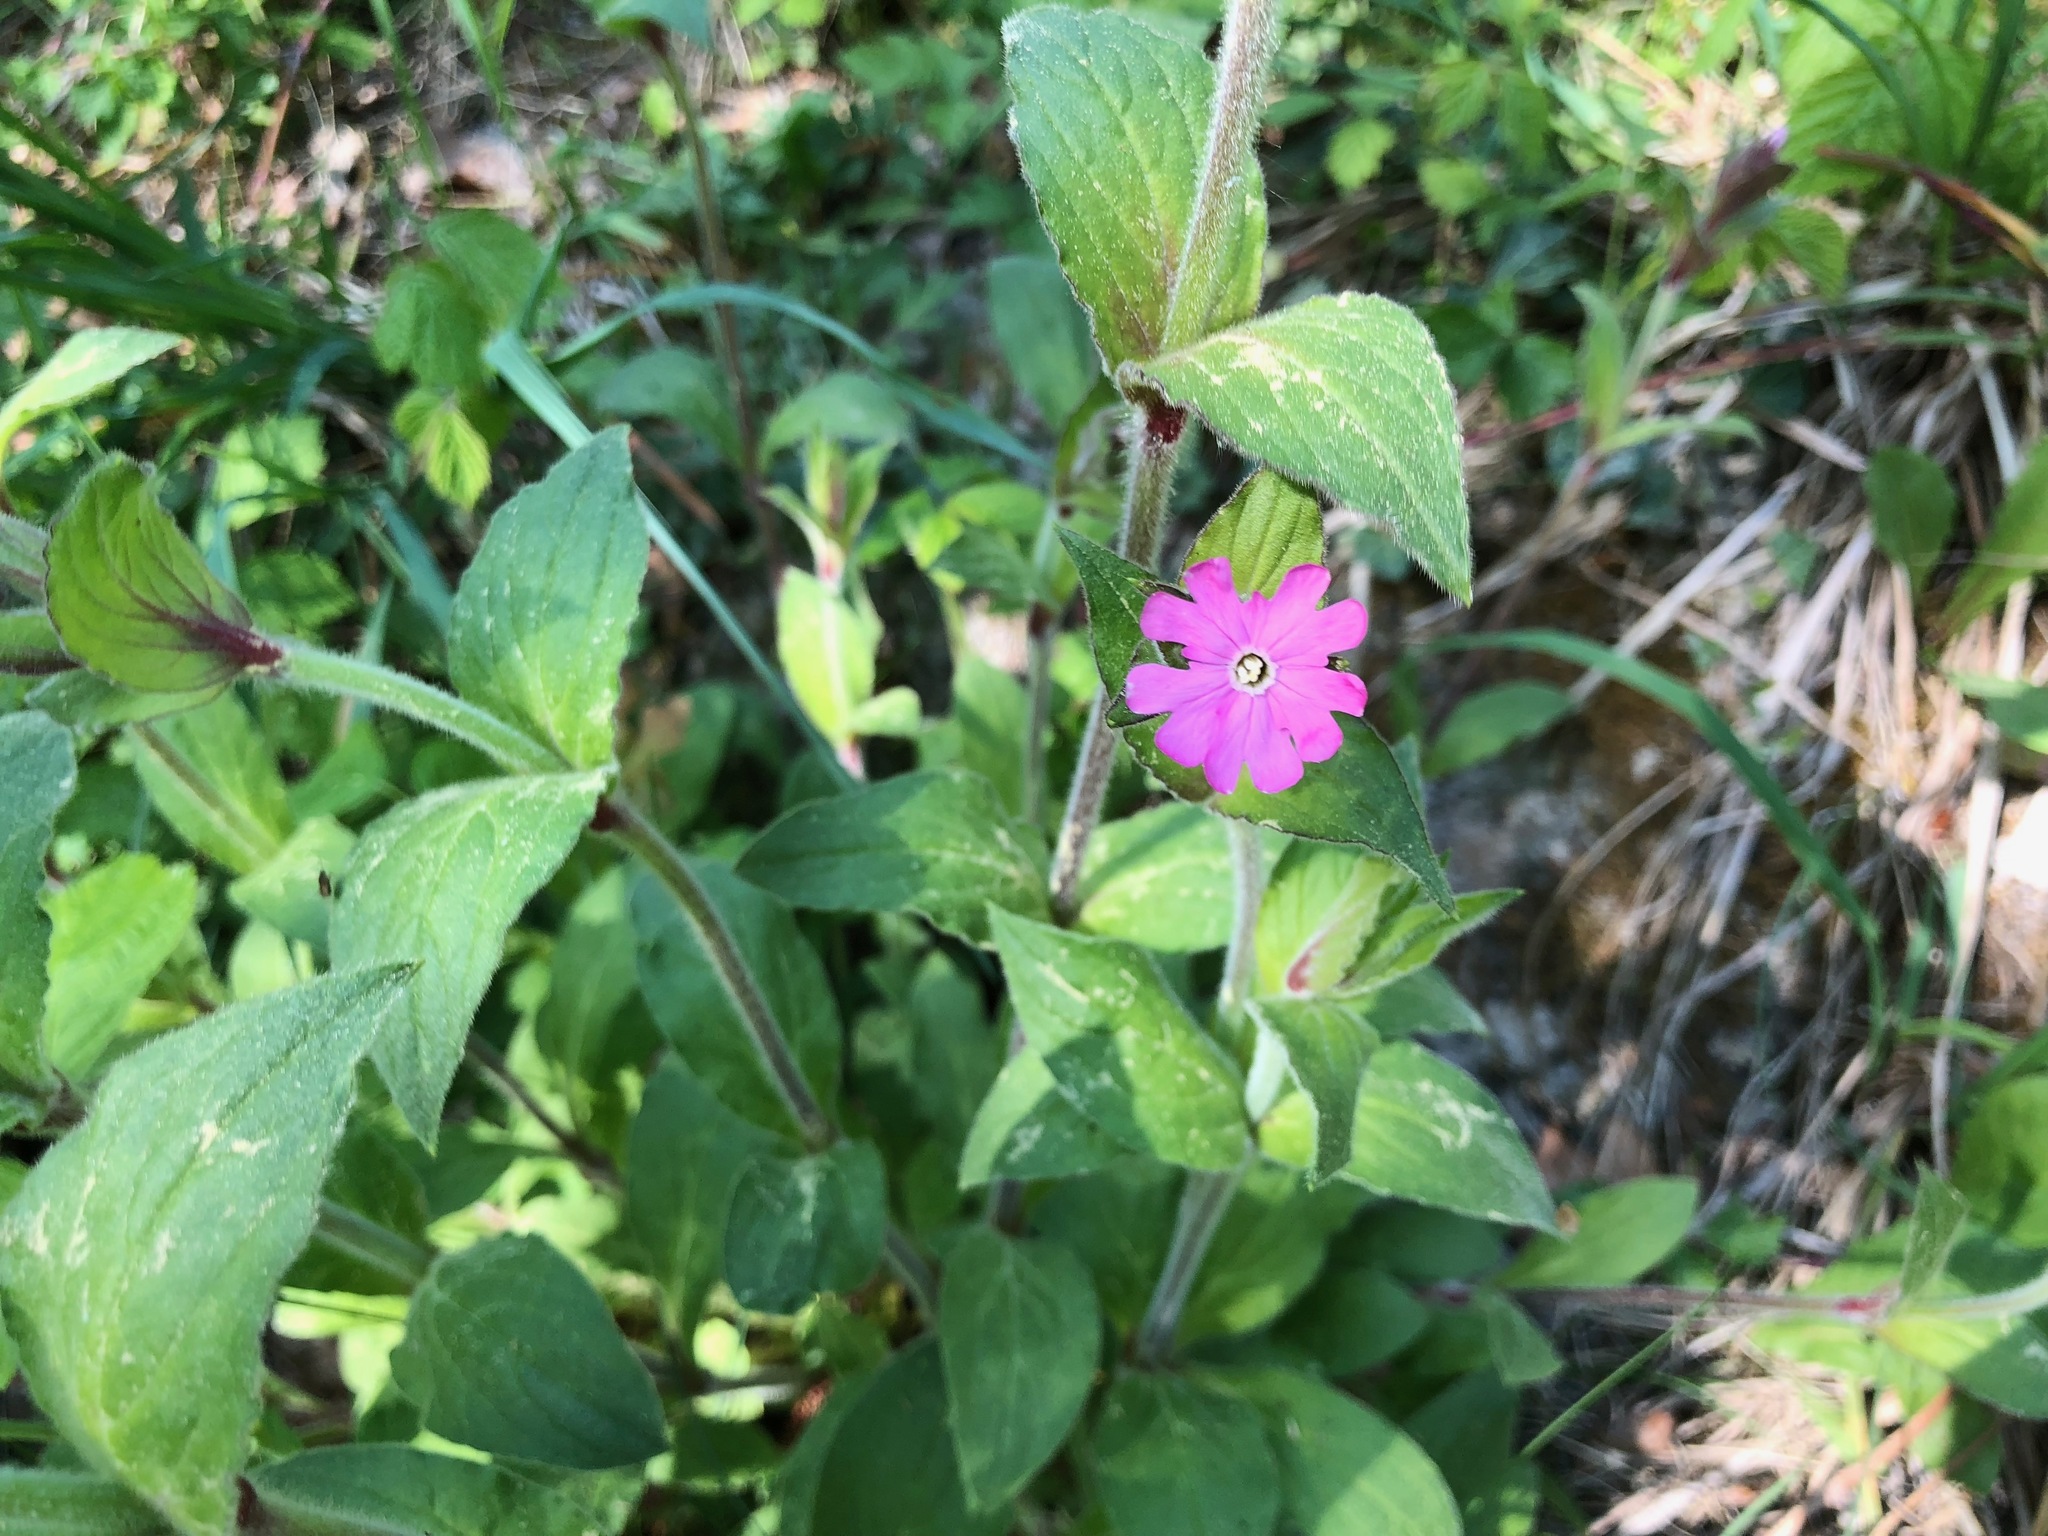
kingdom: Plantae
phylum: Tracheophyta
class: Magnoliopsida
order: Caryophyllales
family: Caryophyllaceae
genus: Silene
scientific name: Silene dioica
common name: Red campion
